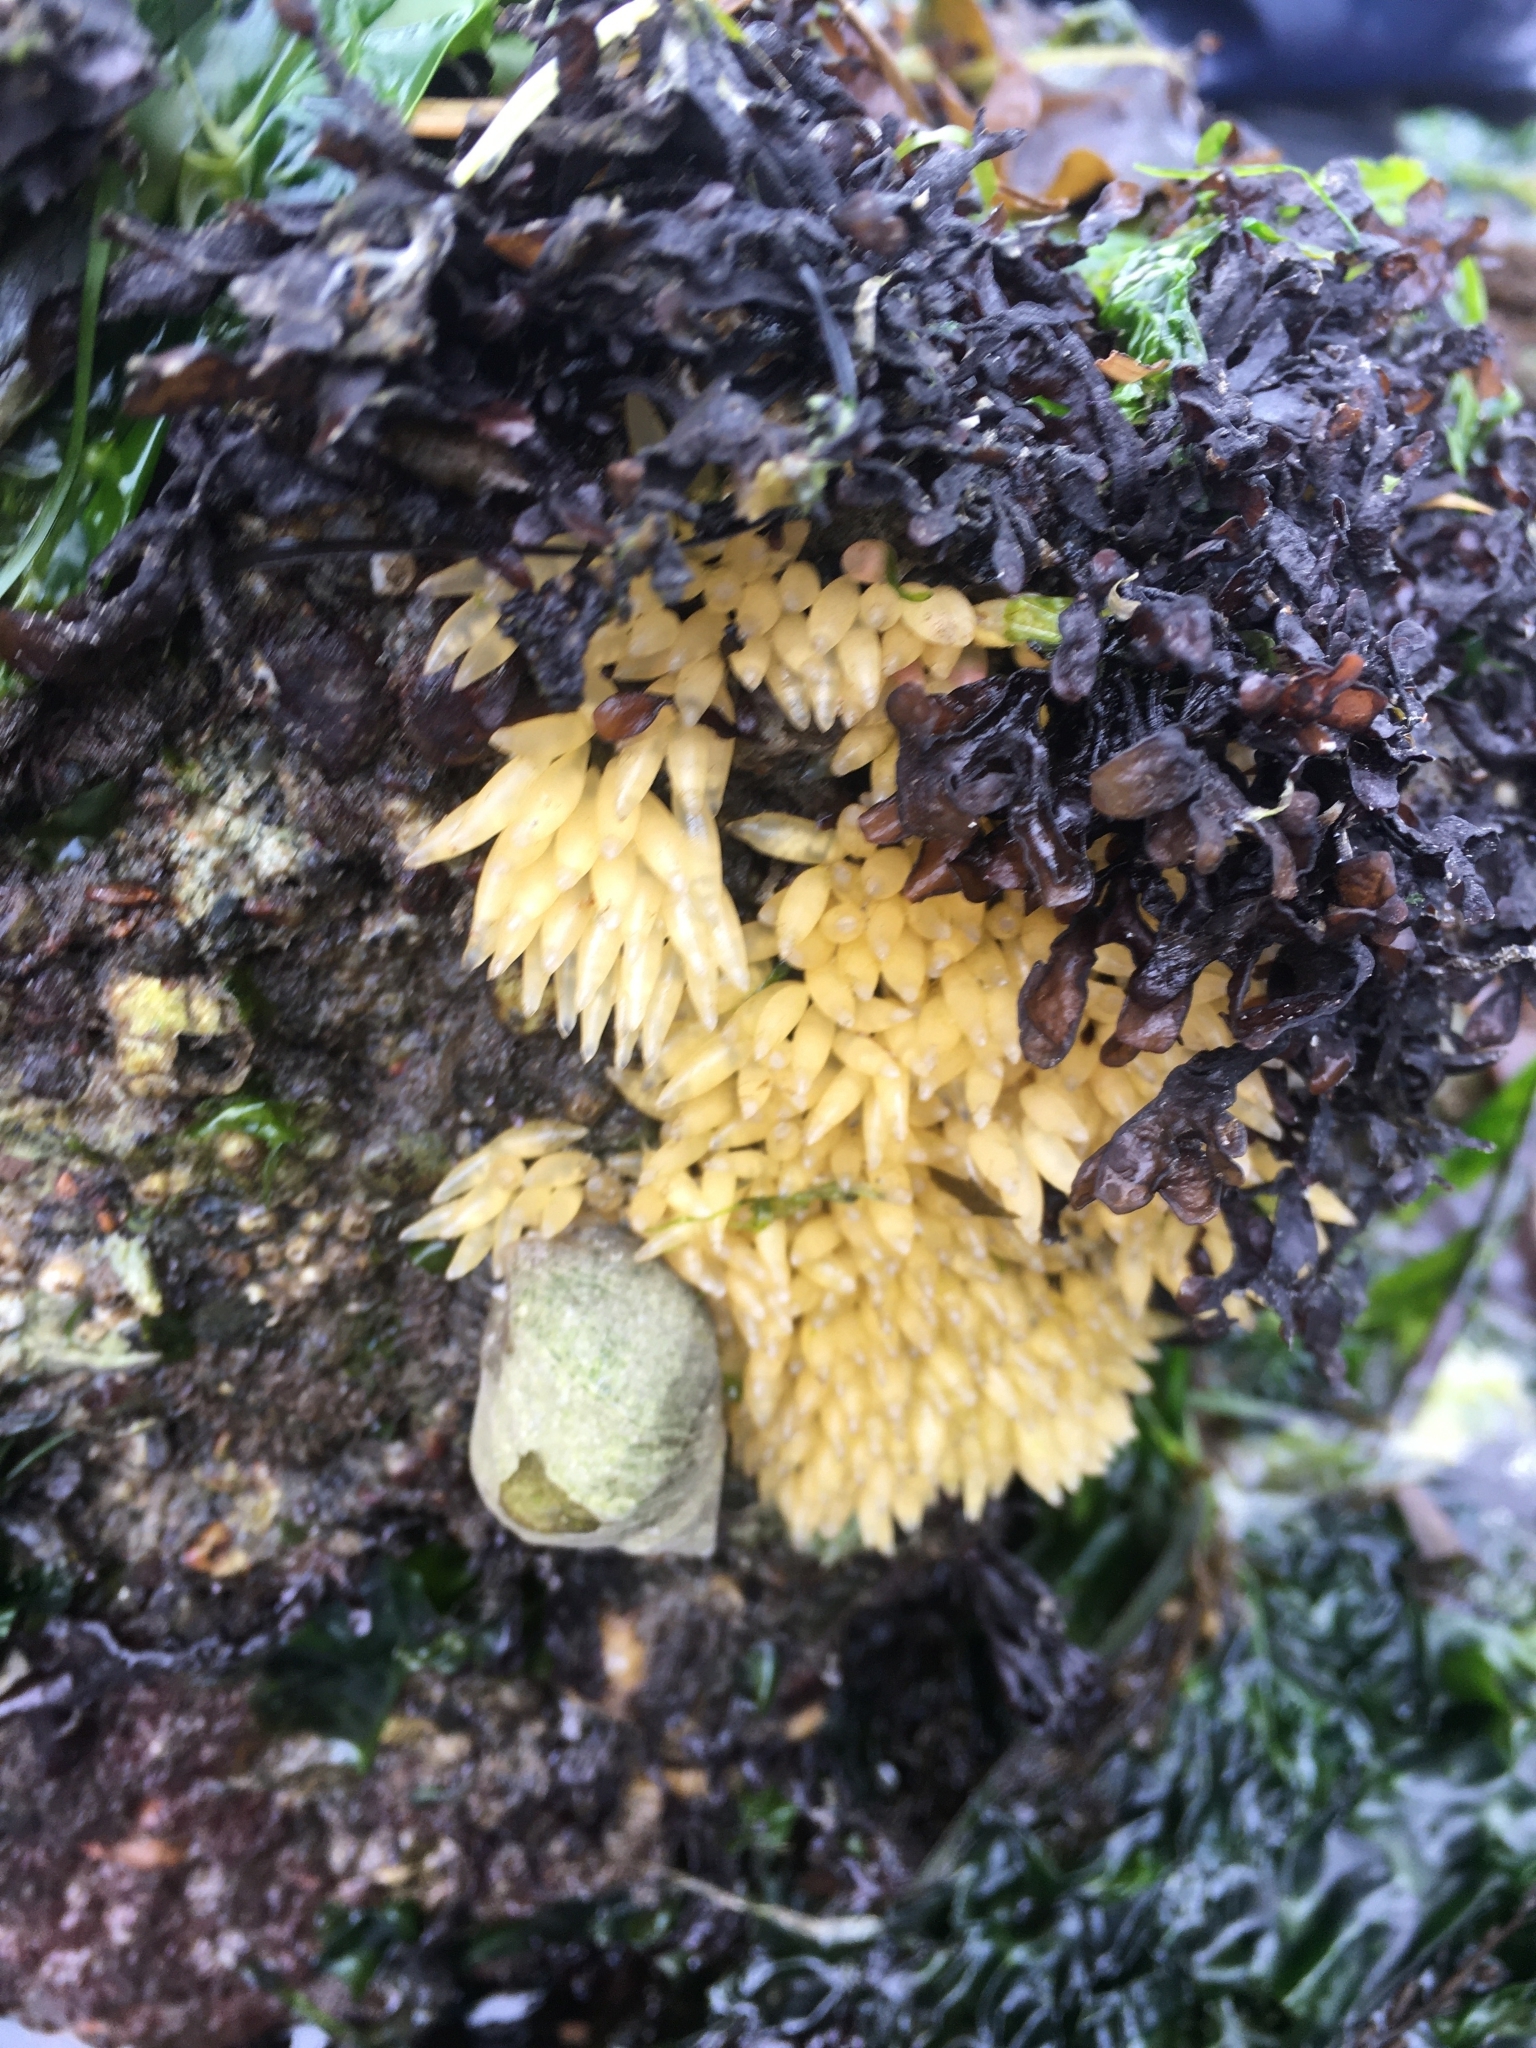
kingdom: Animalia
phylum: Mollusca
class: Gastropoda
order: Neogastropoda
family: Muricidae
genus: Nucella
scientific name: Nucella lamellosa
